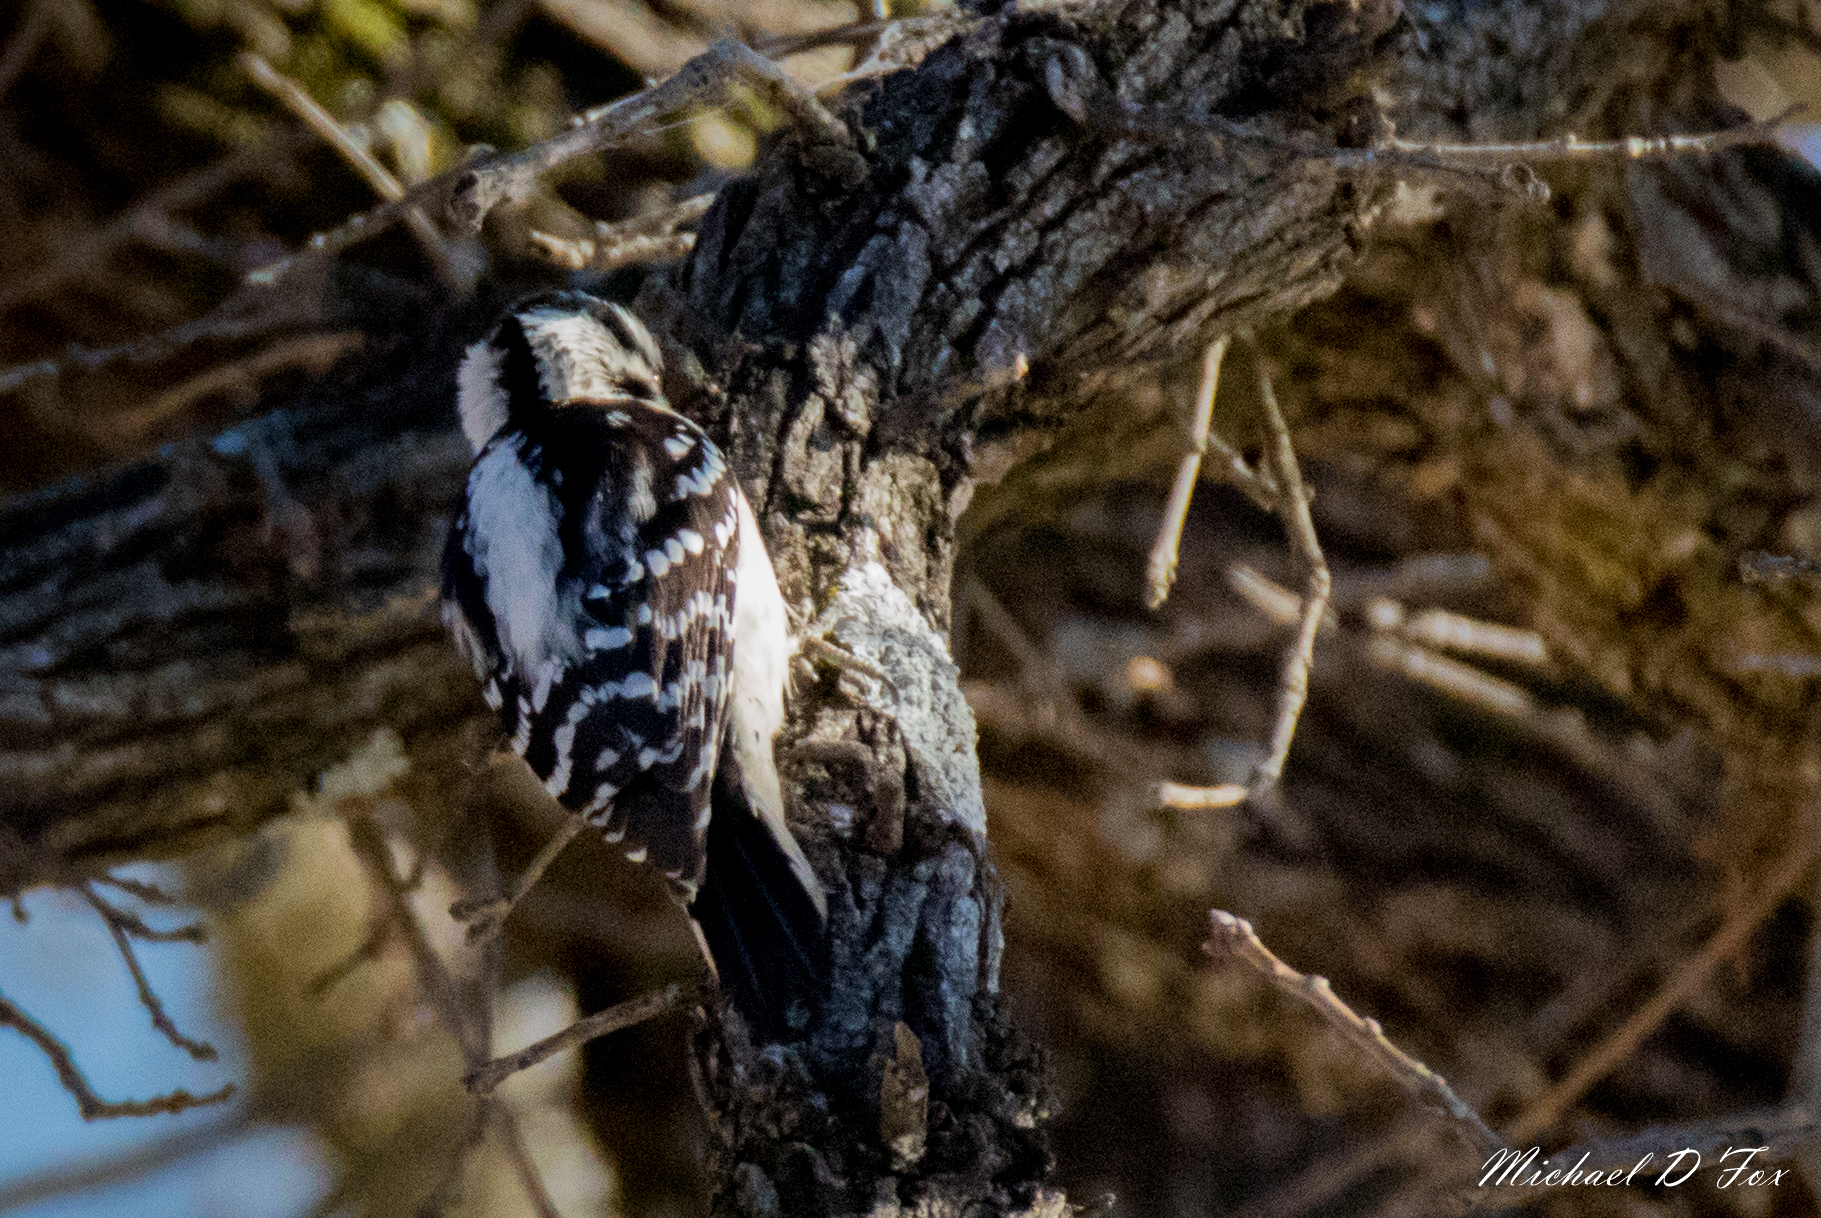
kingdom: Animalia
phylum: Chordata
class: Aves
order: Piciformes
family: Picidae
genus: Dryobates
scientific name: Dryobates pubescens
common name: Downy woodpecker
